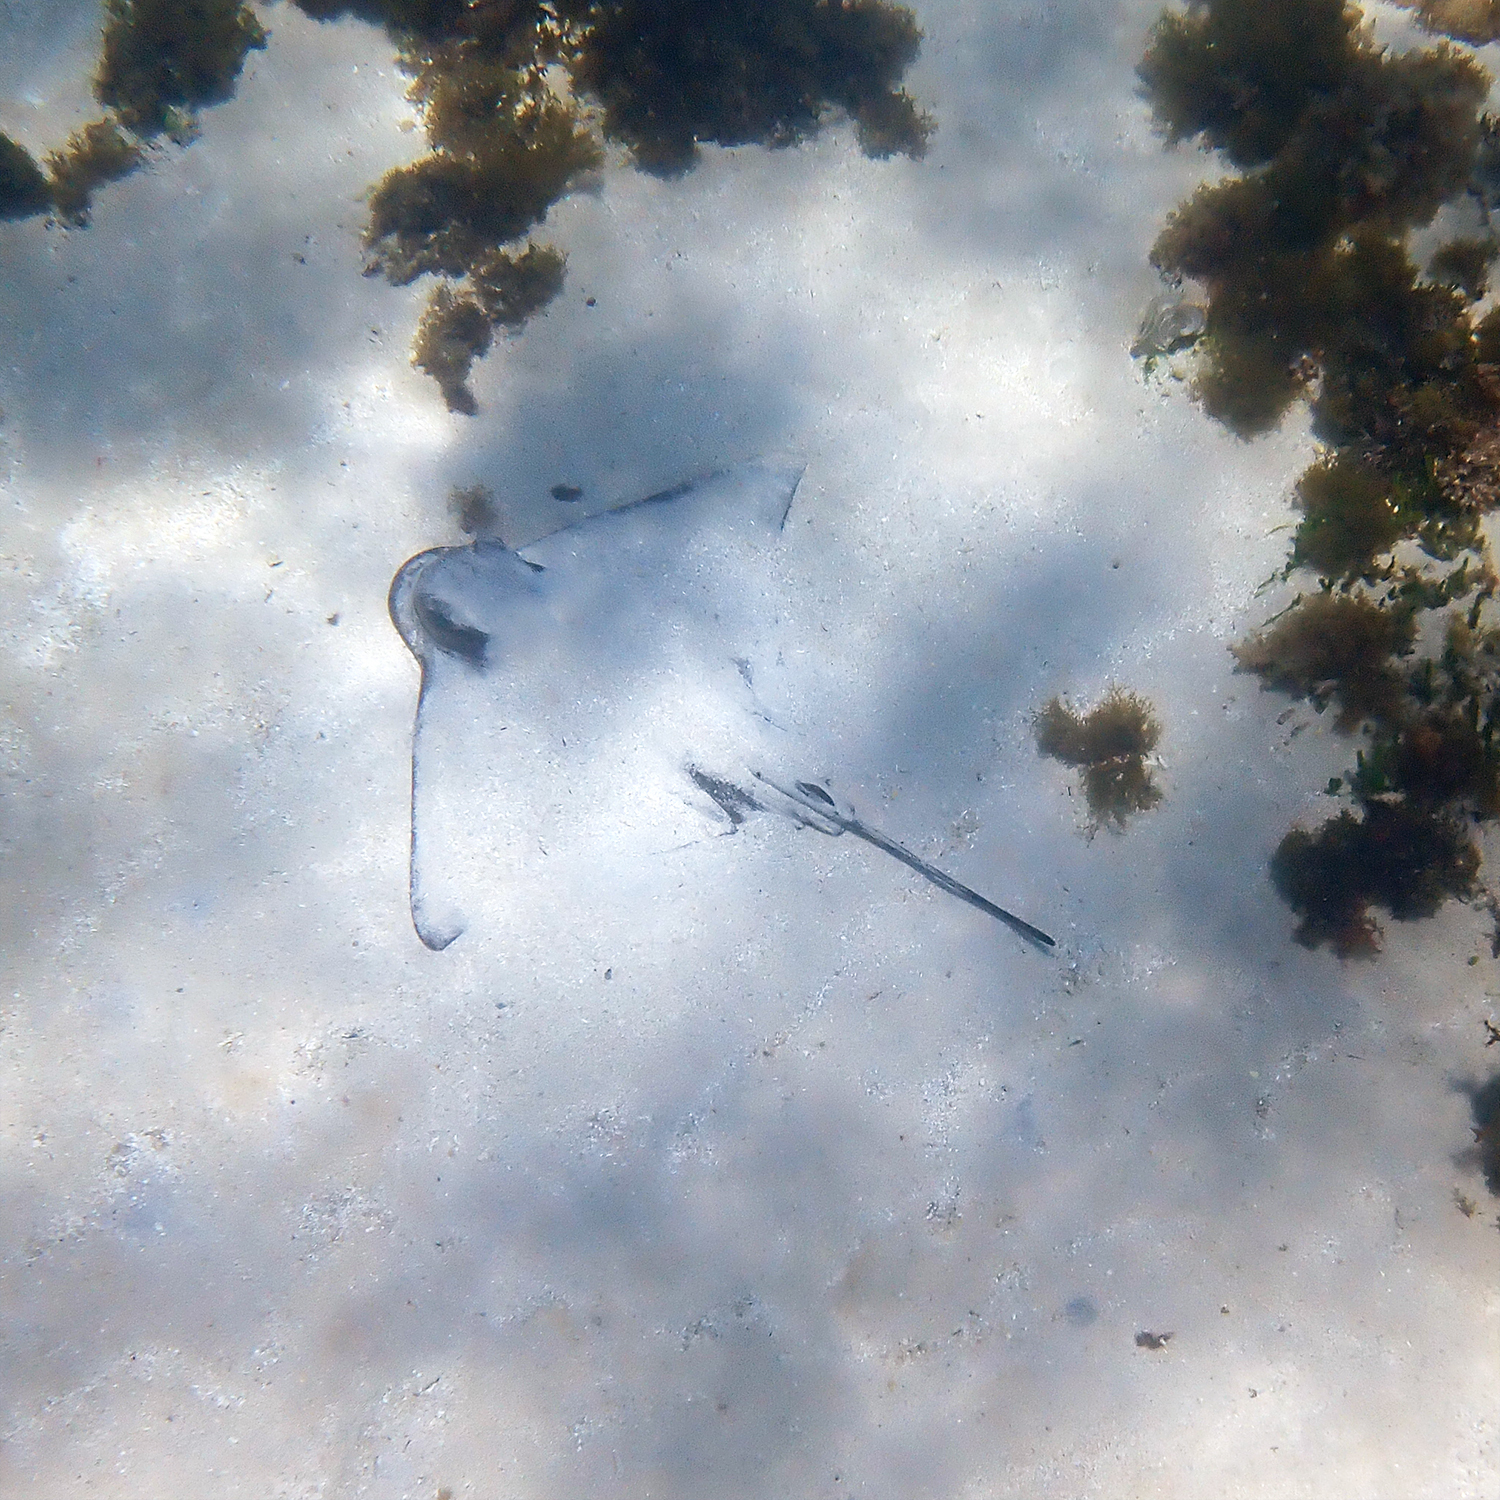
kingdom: Animalia
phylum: Chordata
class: Elasmobranchii
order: Myliobatiformes
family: Myliobatidae
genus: Myliobatis
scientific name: Myliobatis tenuicaudatus
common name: Eagle ray
